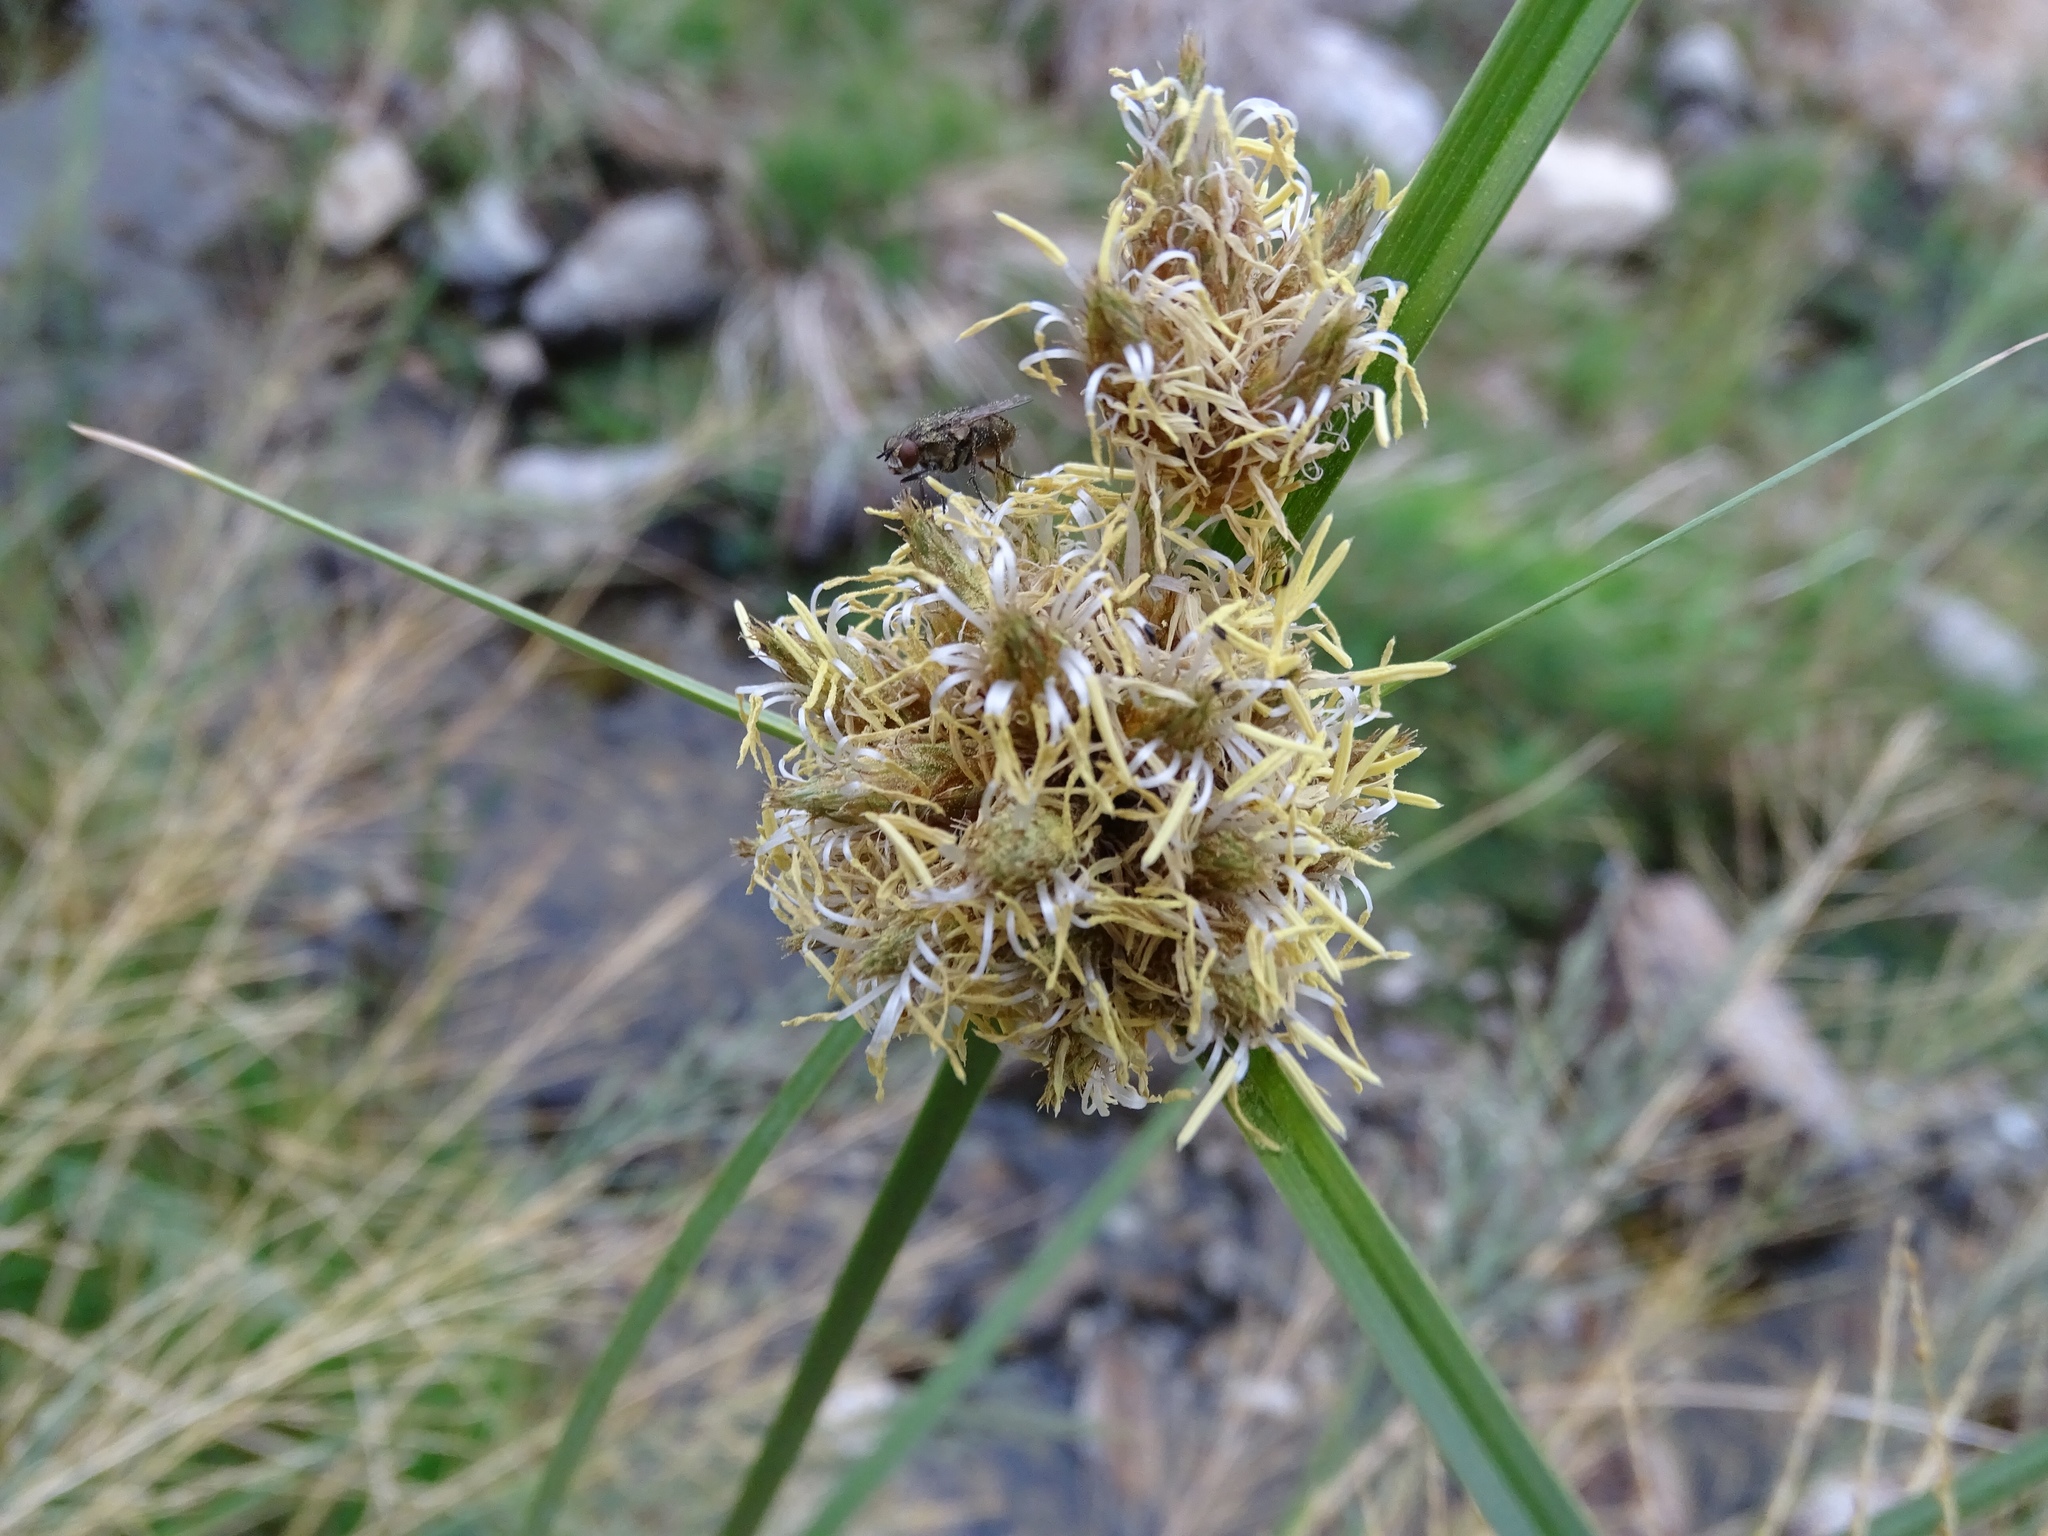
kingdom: Plantae
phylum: Tracheophyta
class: Liliopsida
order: Poales
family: Cyperaceae
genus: Bolboschoenus
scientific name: Bolboschoenus maritimus
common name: Sea club-rush
